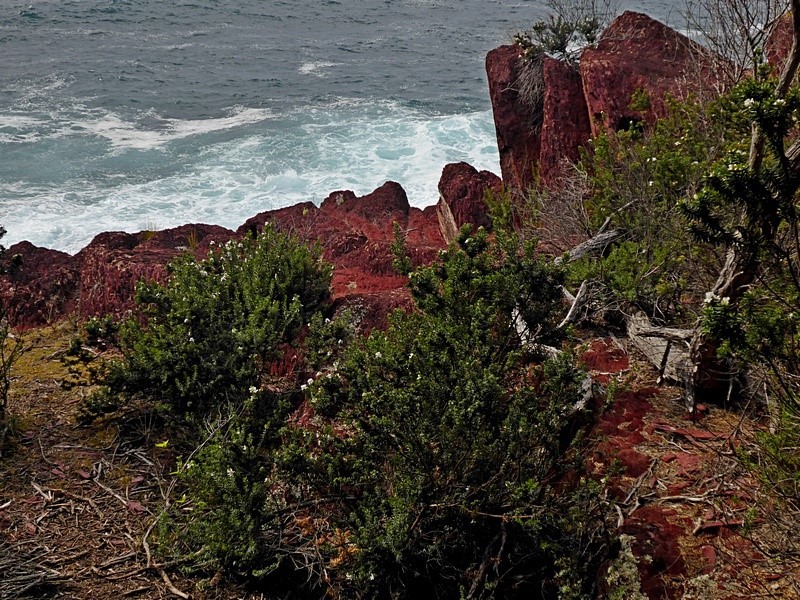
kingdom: Plantae
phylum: Tracheophyta
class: Magnoliopsida
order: Lamiales
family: Lamiaceae
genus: Westringia
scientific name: Westringia fruticosa
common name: Coastal-rosemary
